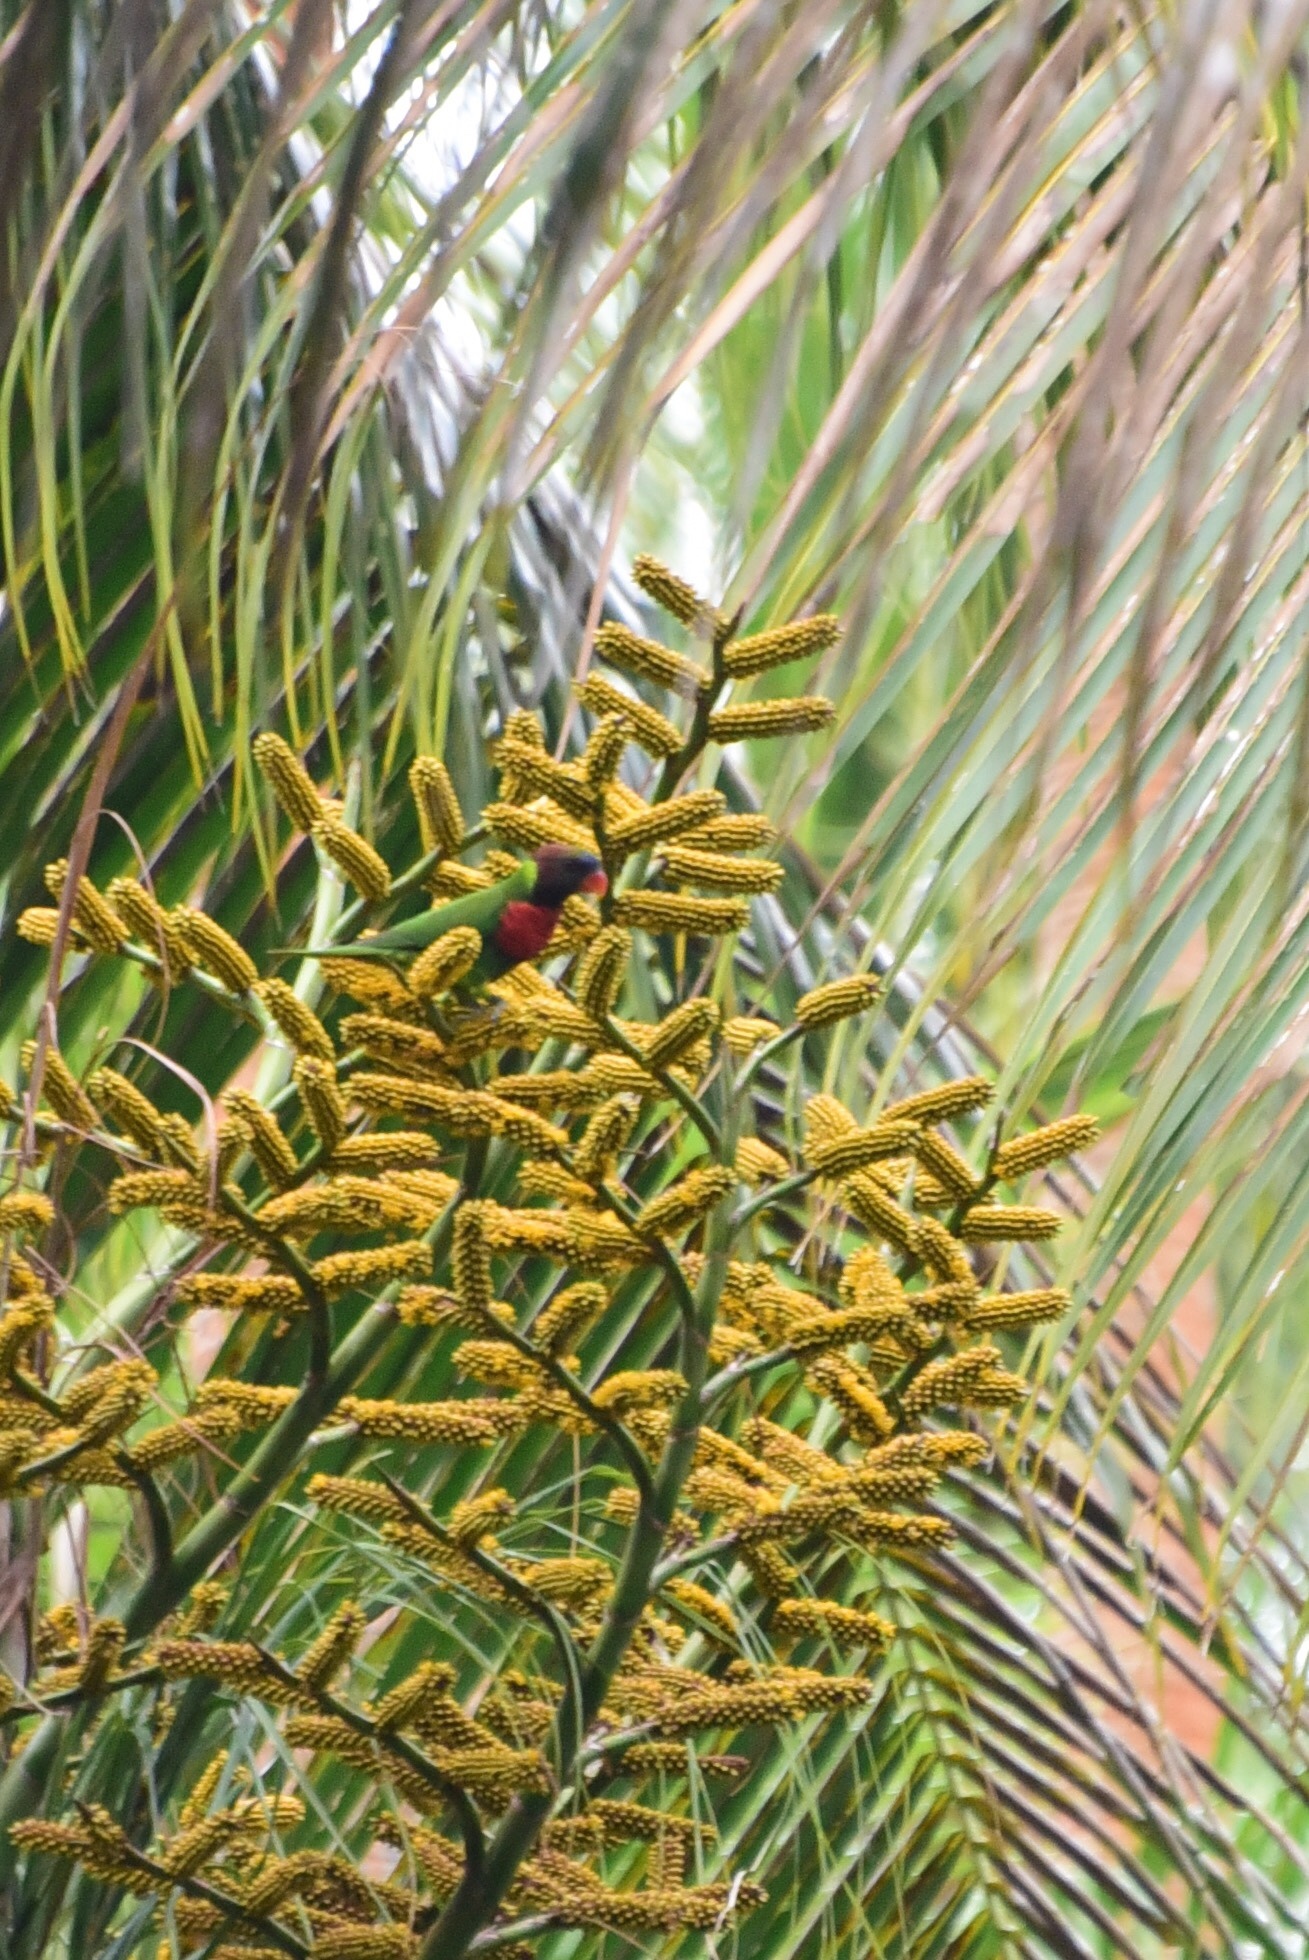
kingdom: Animalia
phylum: Chordata
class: Aves
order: Psittaciformes
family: Psittacidae
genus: Trichoglossus
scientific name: Trichoglossus haematodus
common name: Coconut lorikeet
